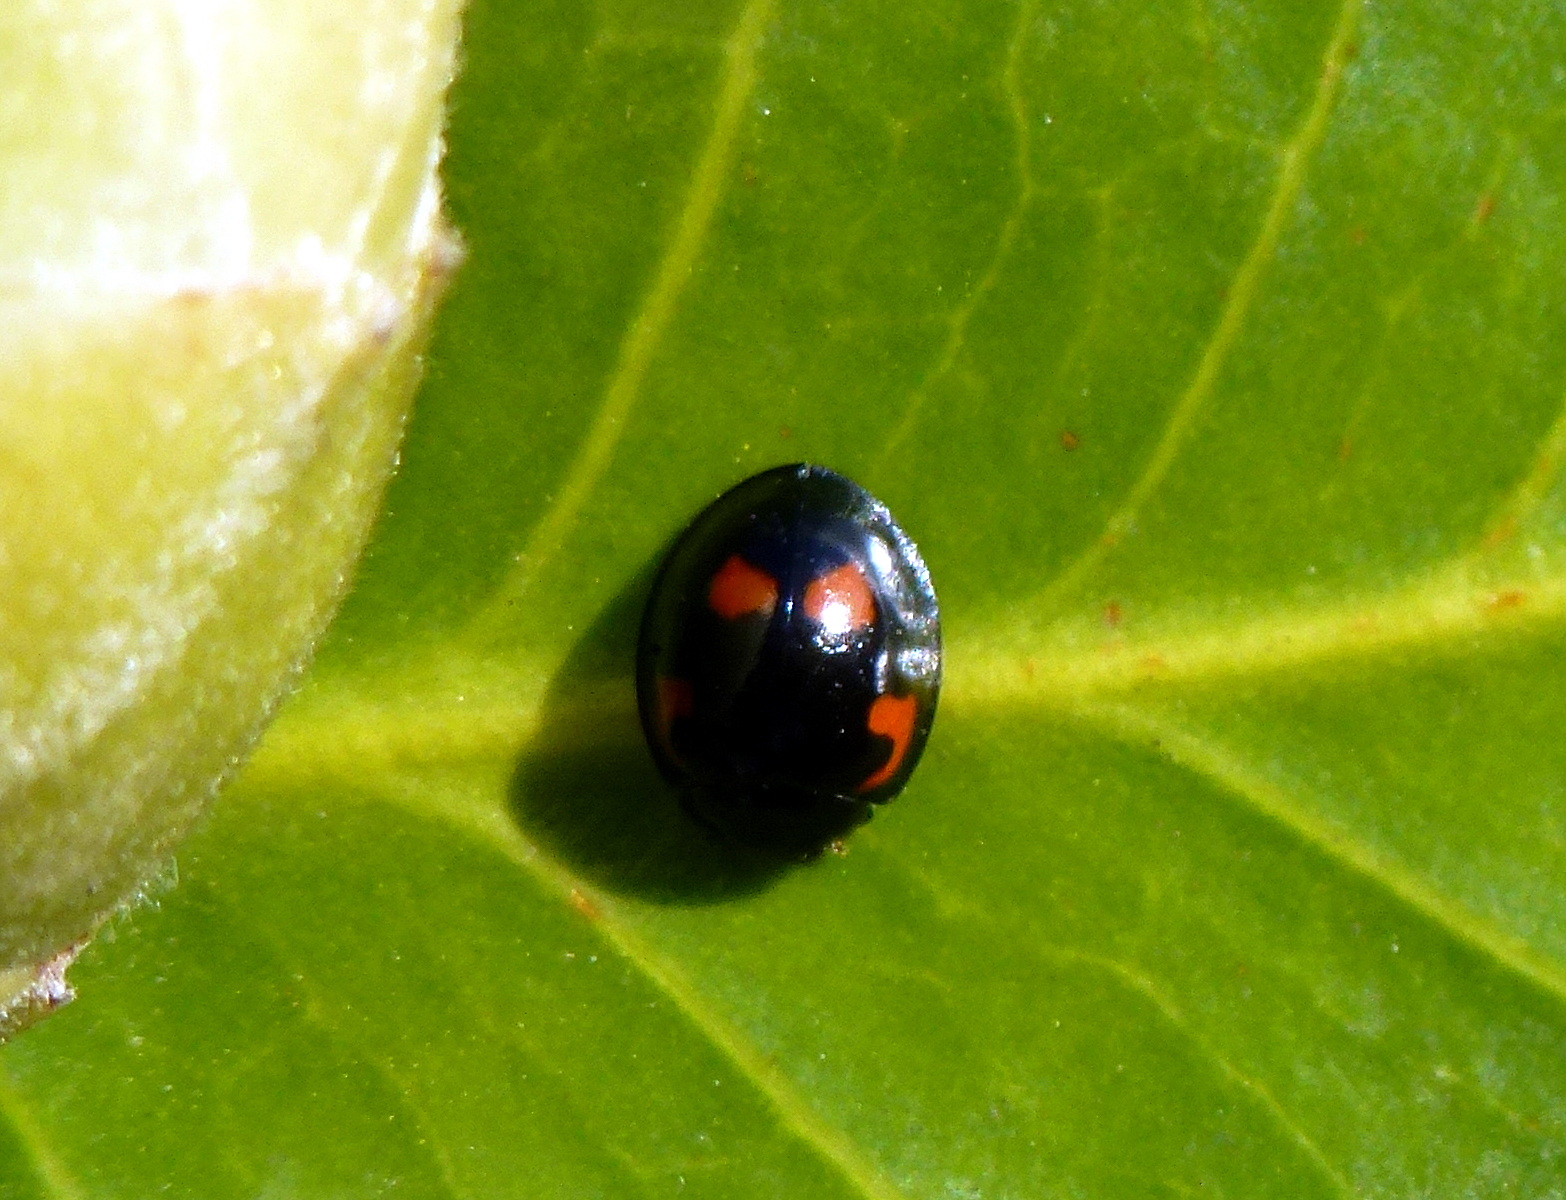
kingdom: Animalia
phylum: Arthropoda
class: Insecta
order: Coleoptera
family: Coccinellidae
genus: Brumus
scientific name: Brumus quadripustulatus
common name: Ladybird beetle
